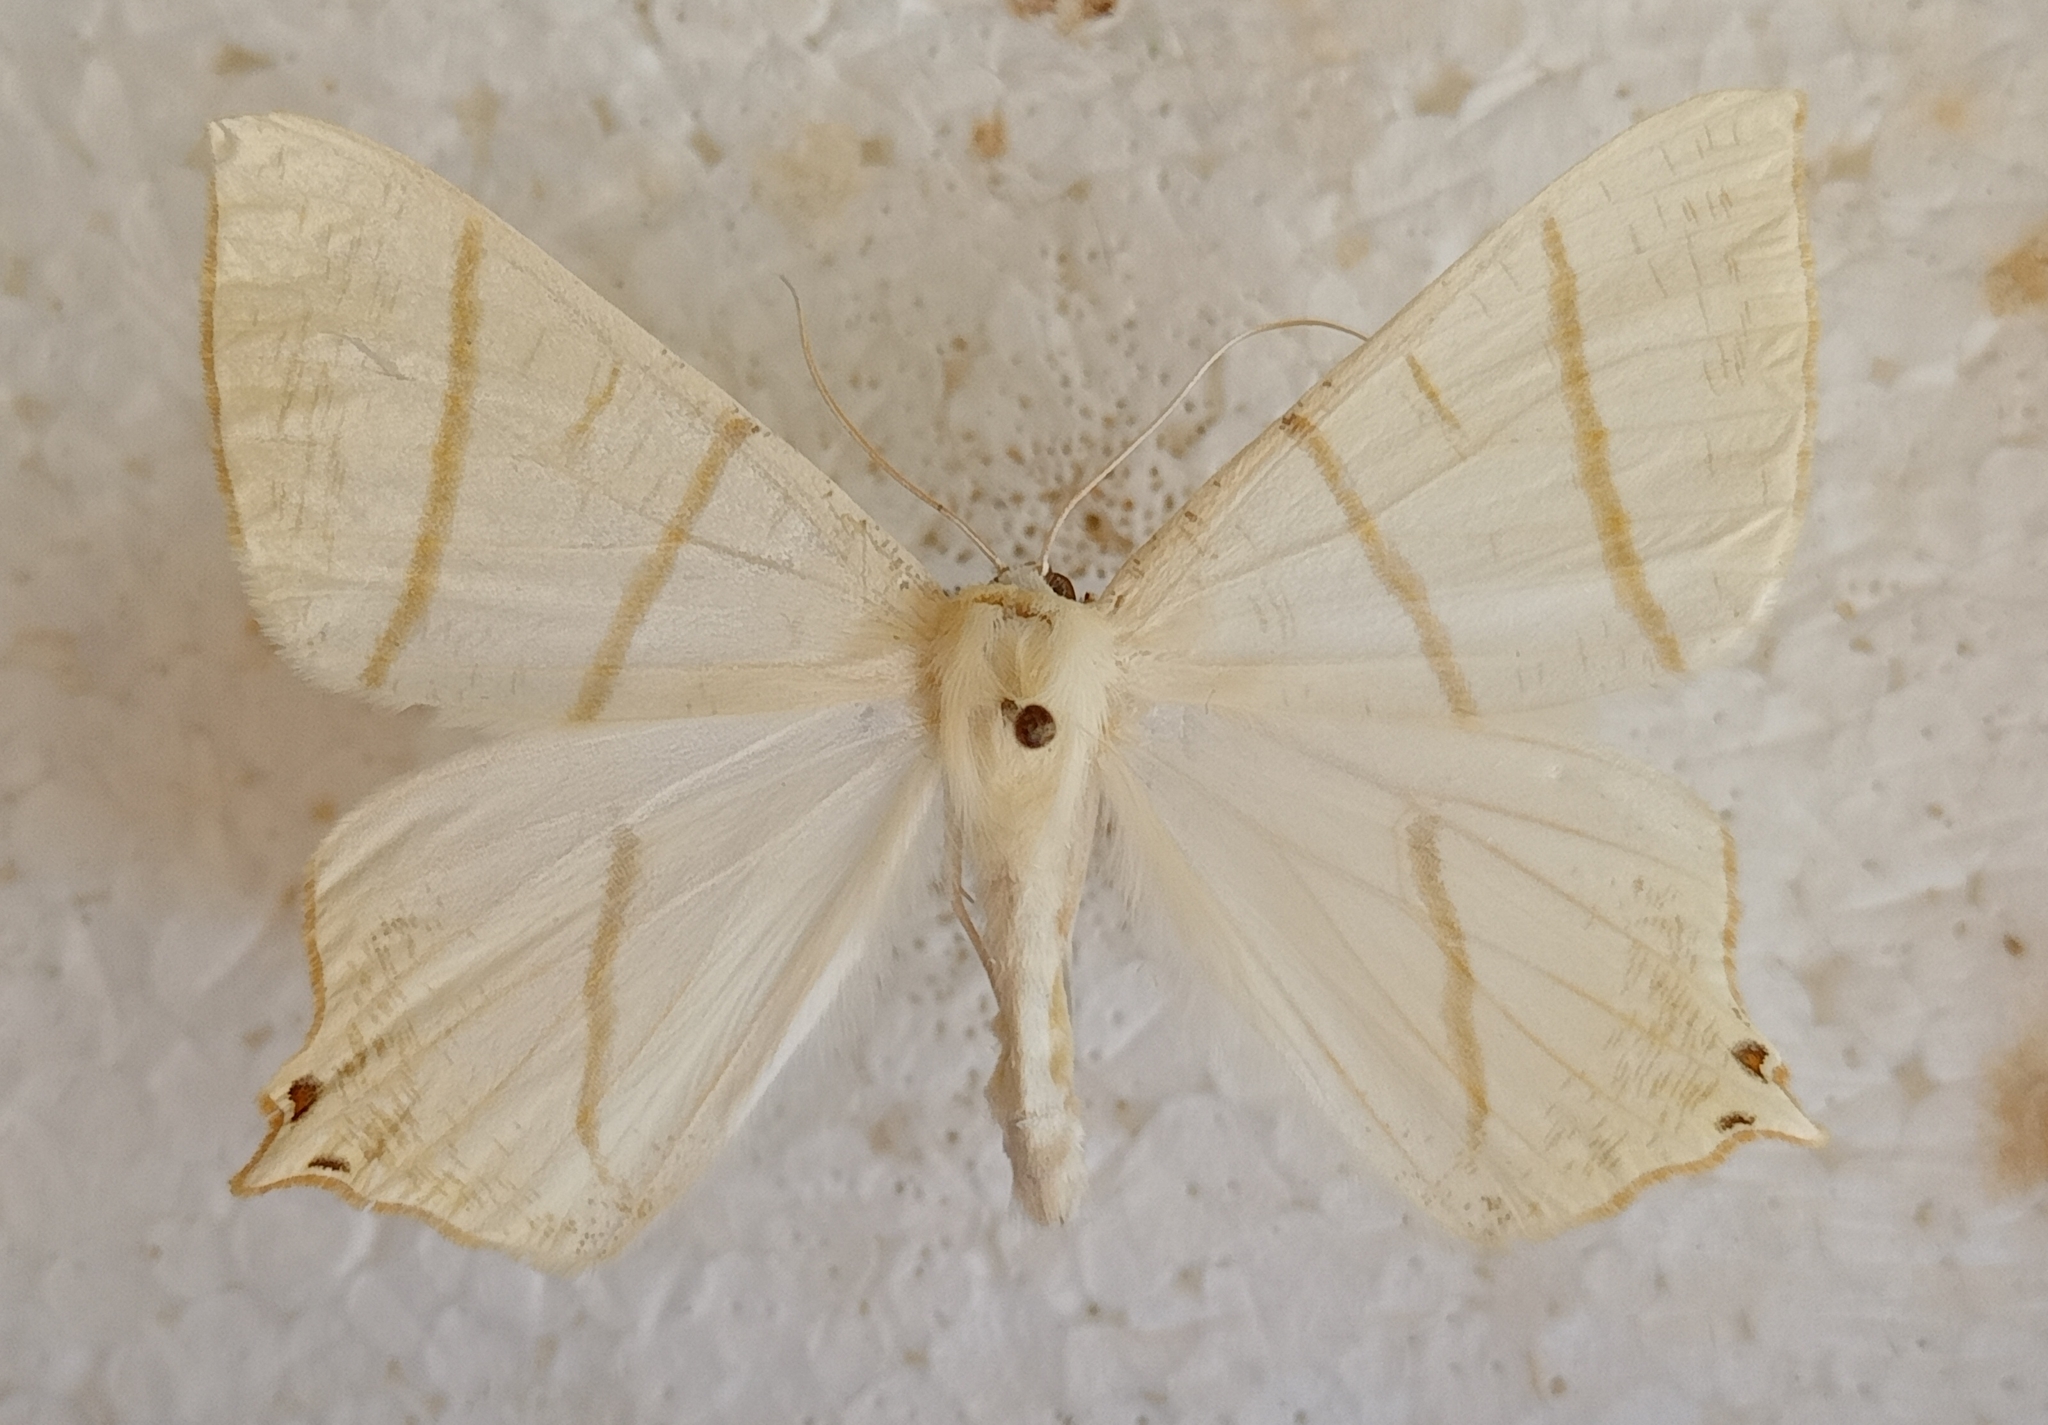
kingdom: Animalia
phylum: Arthropoda
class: Insecta
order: Lepidoptera
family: Geometridae
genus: Ourapteryx
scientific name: Ourapteryx sambucaria
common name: Swallow-tailed moth
